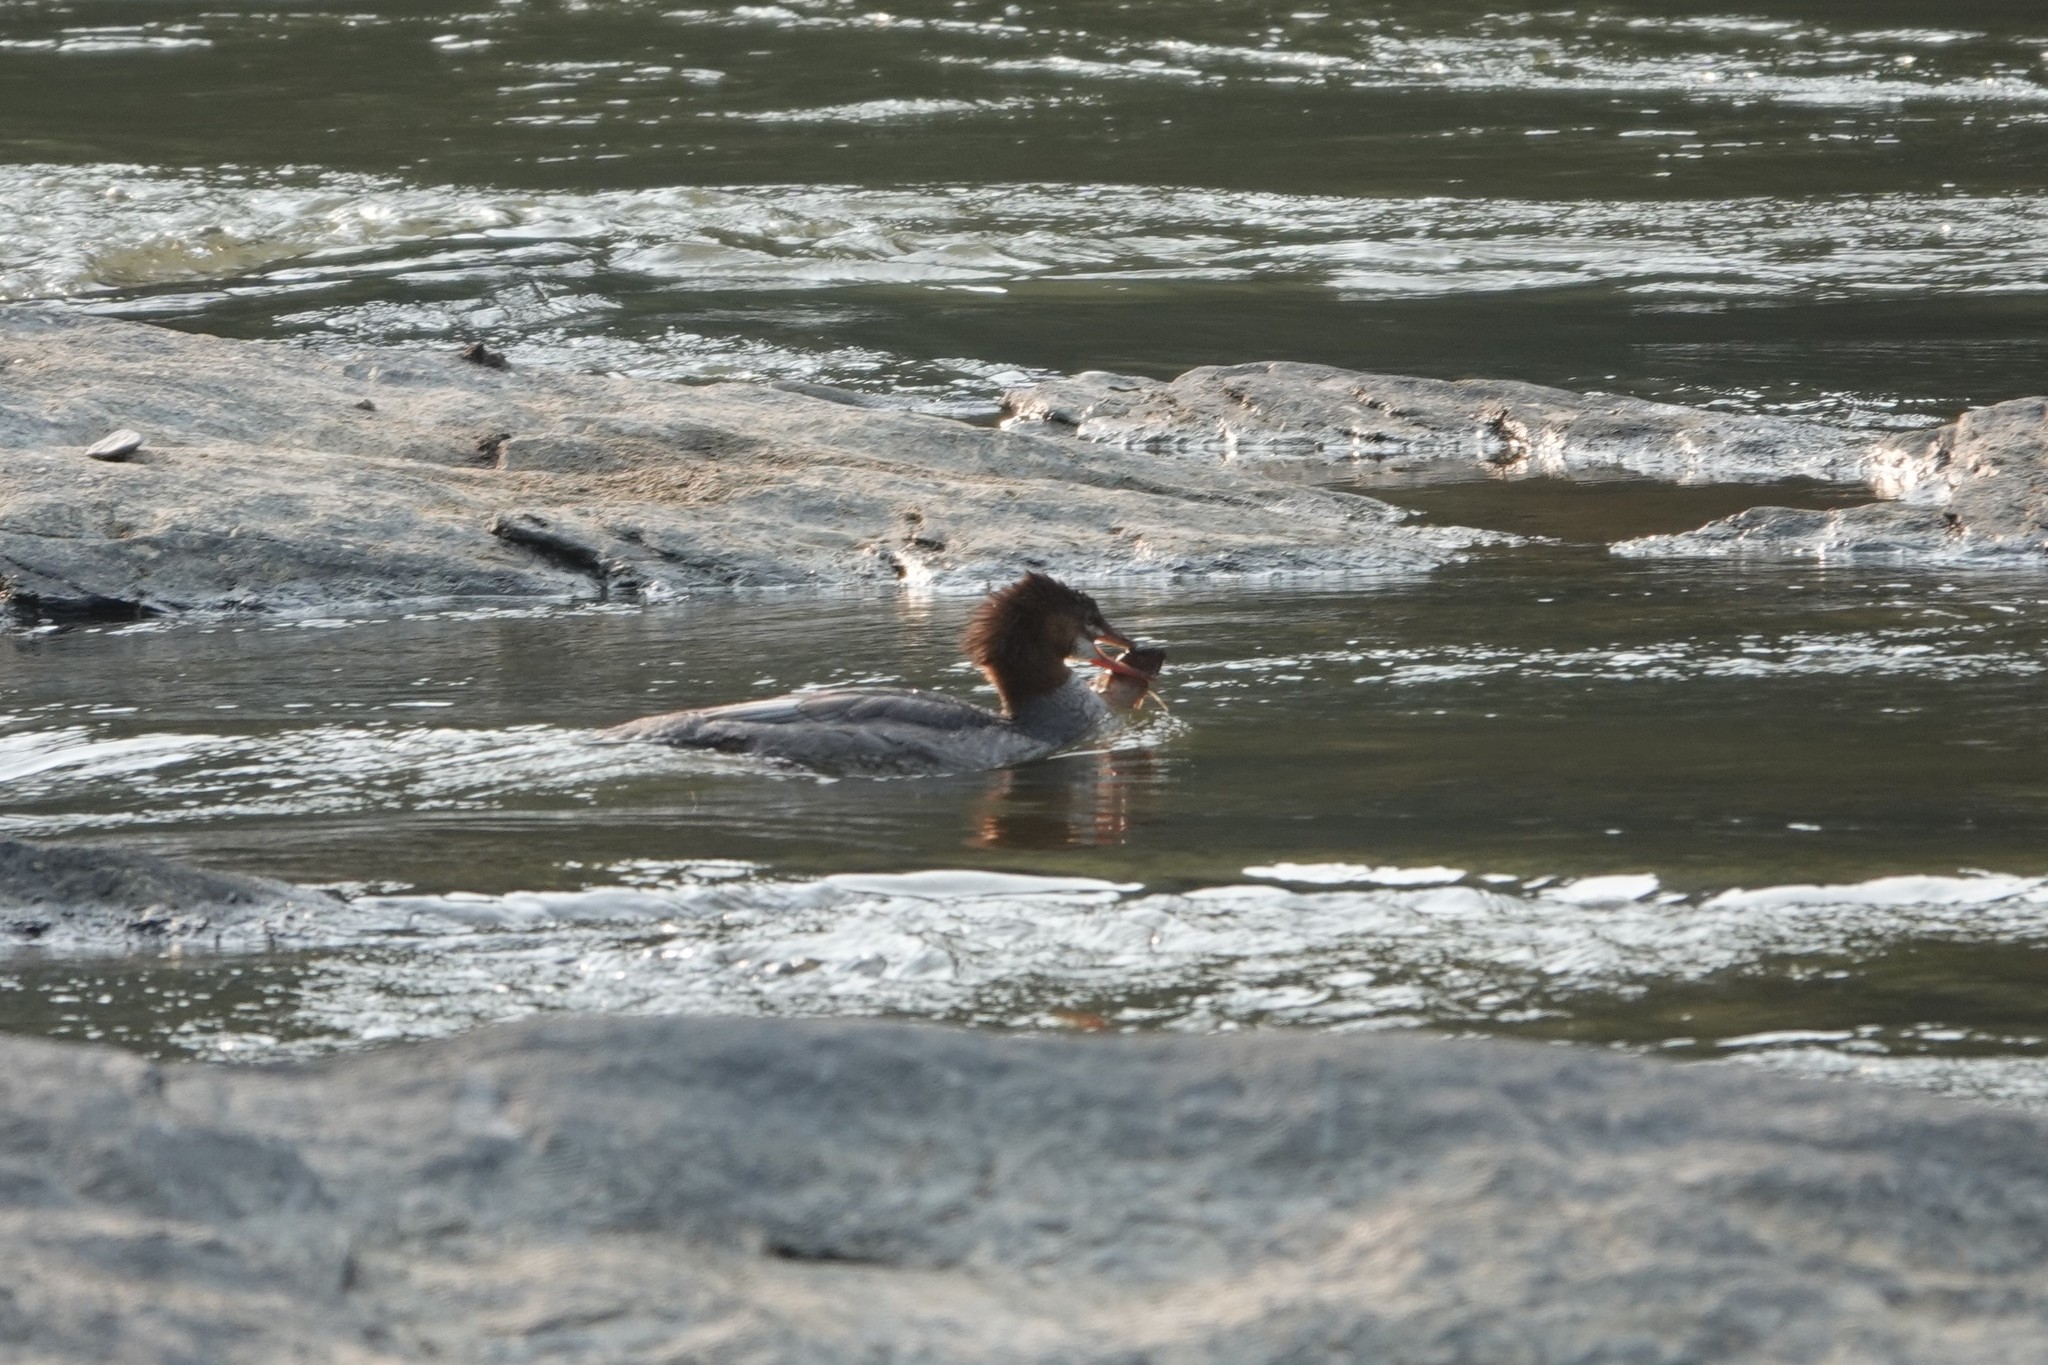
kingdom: Animalia
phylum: Chordata
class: Aves
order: Anseriformes
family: Anatidae
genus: Mergus
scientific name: Mergus merganser
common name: Common merganser
